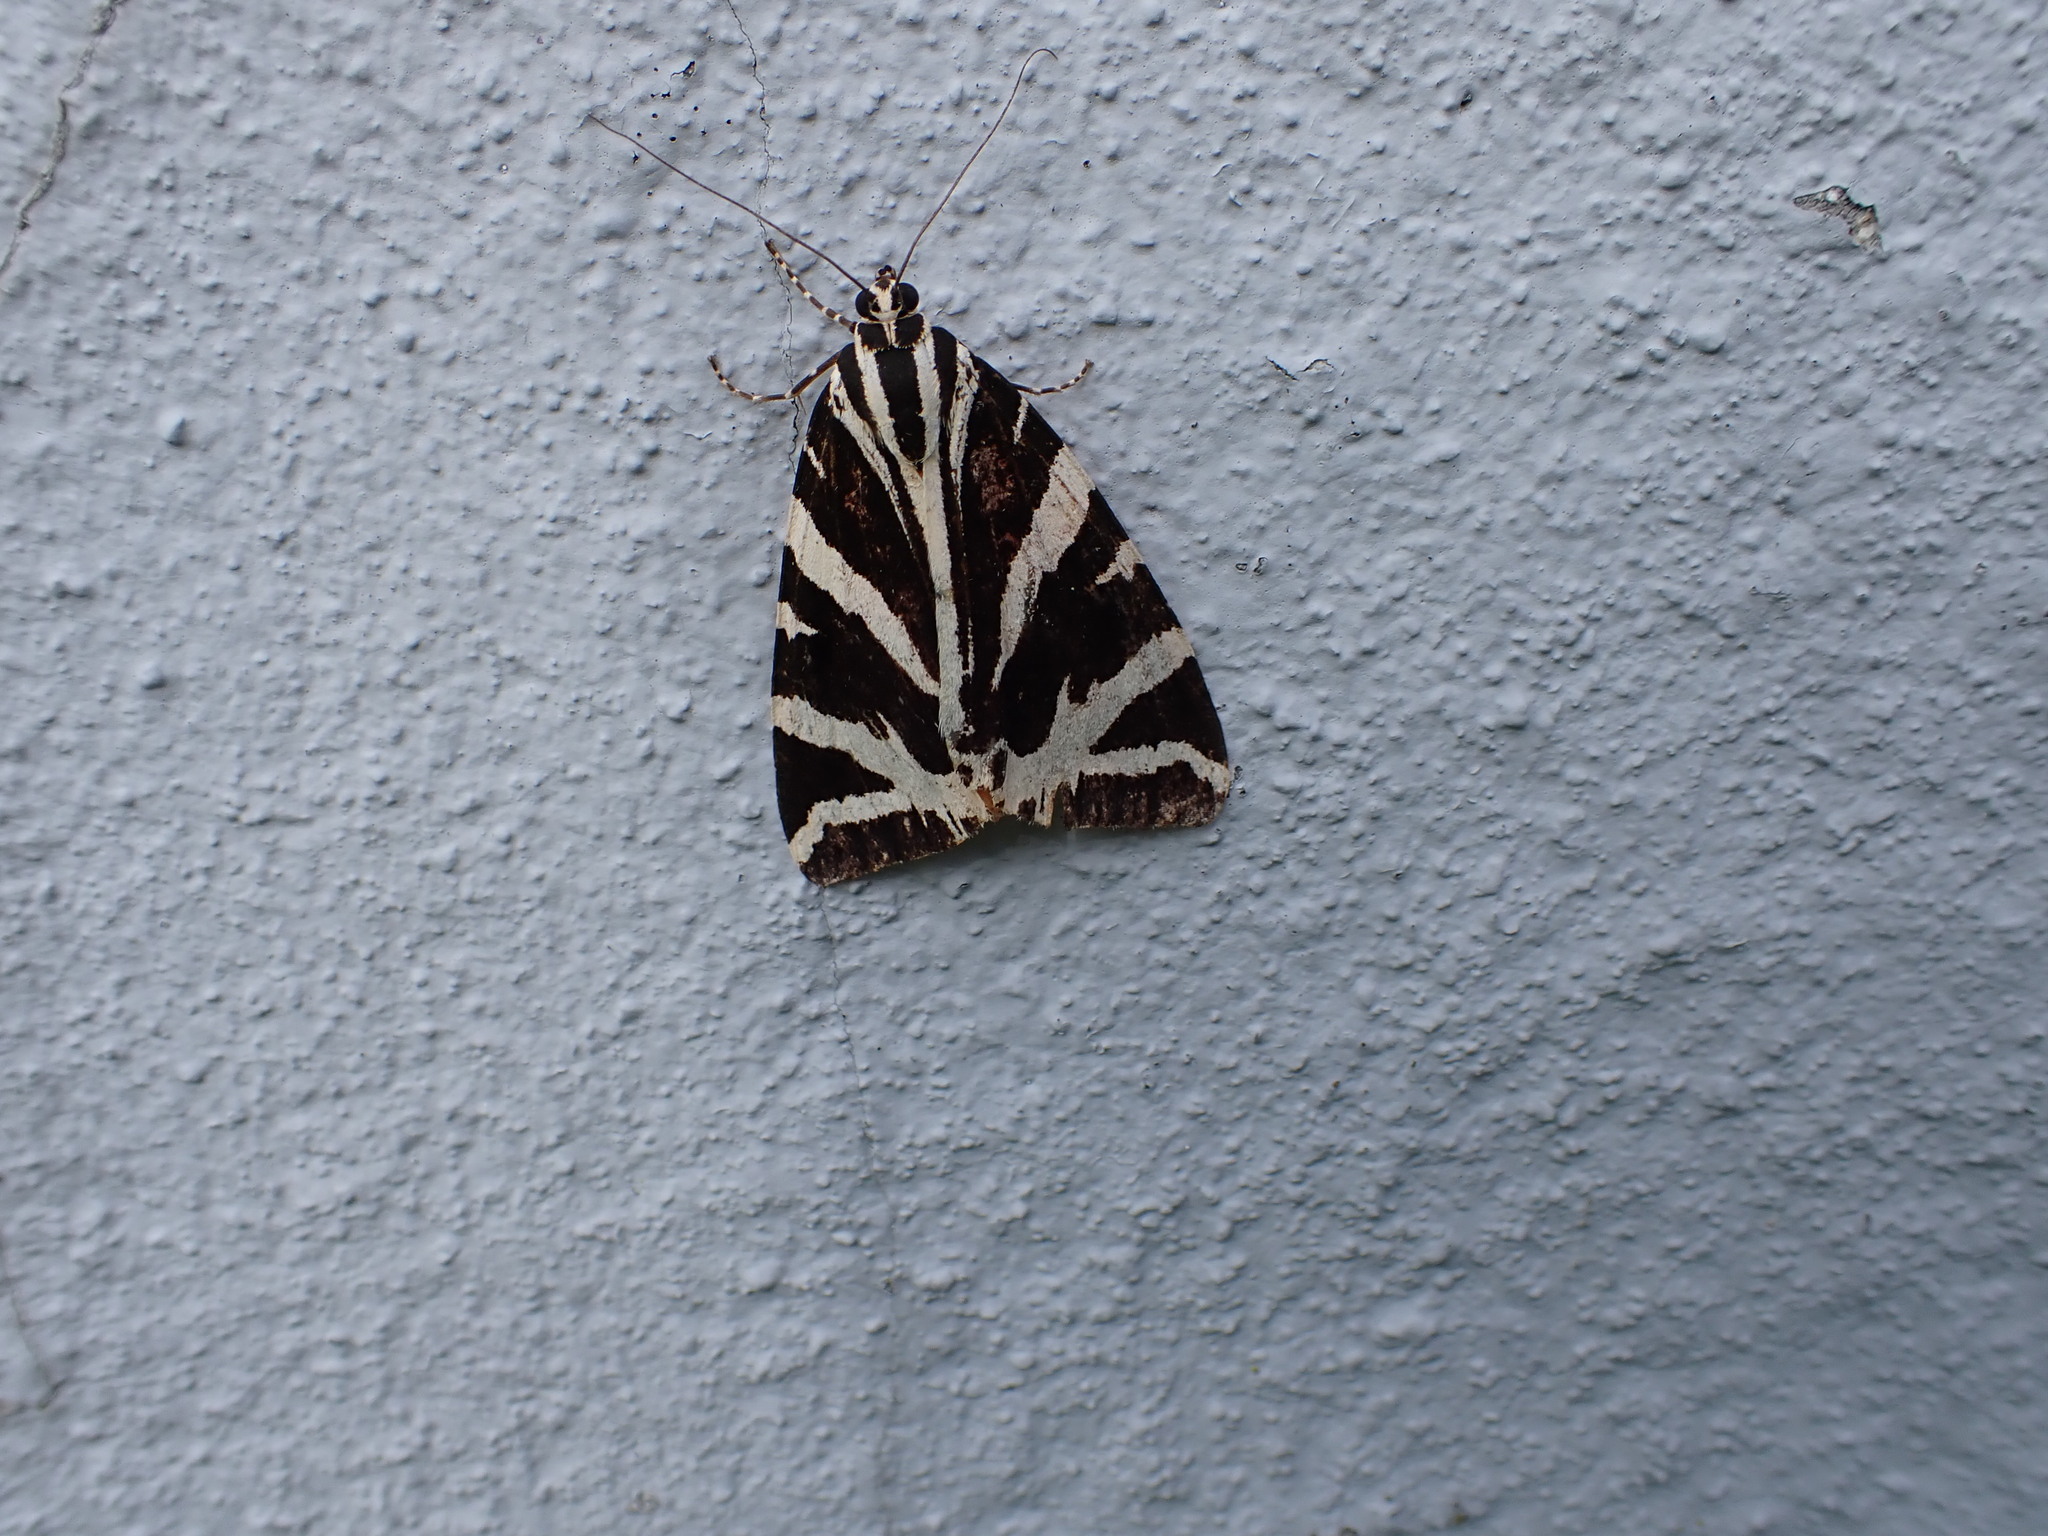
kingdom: Animalia
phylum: Arthropoda
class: Insecta
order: Lepidoptera
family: Erebidae
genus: Euplagia
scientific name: Euplagia quadripunctaria
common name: Jersey tiger
